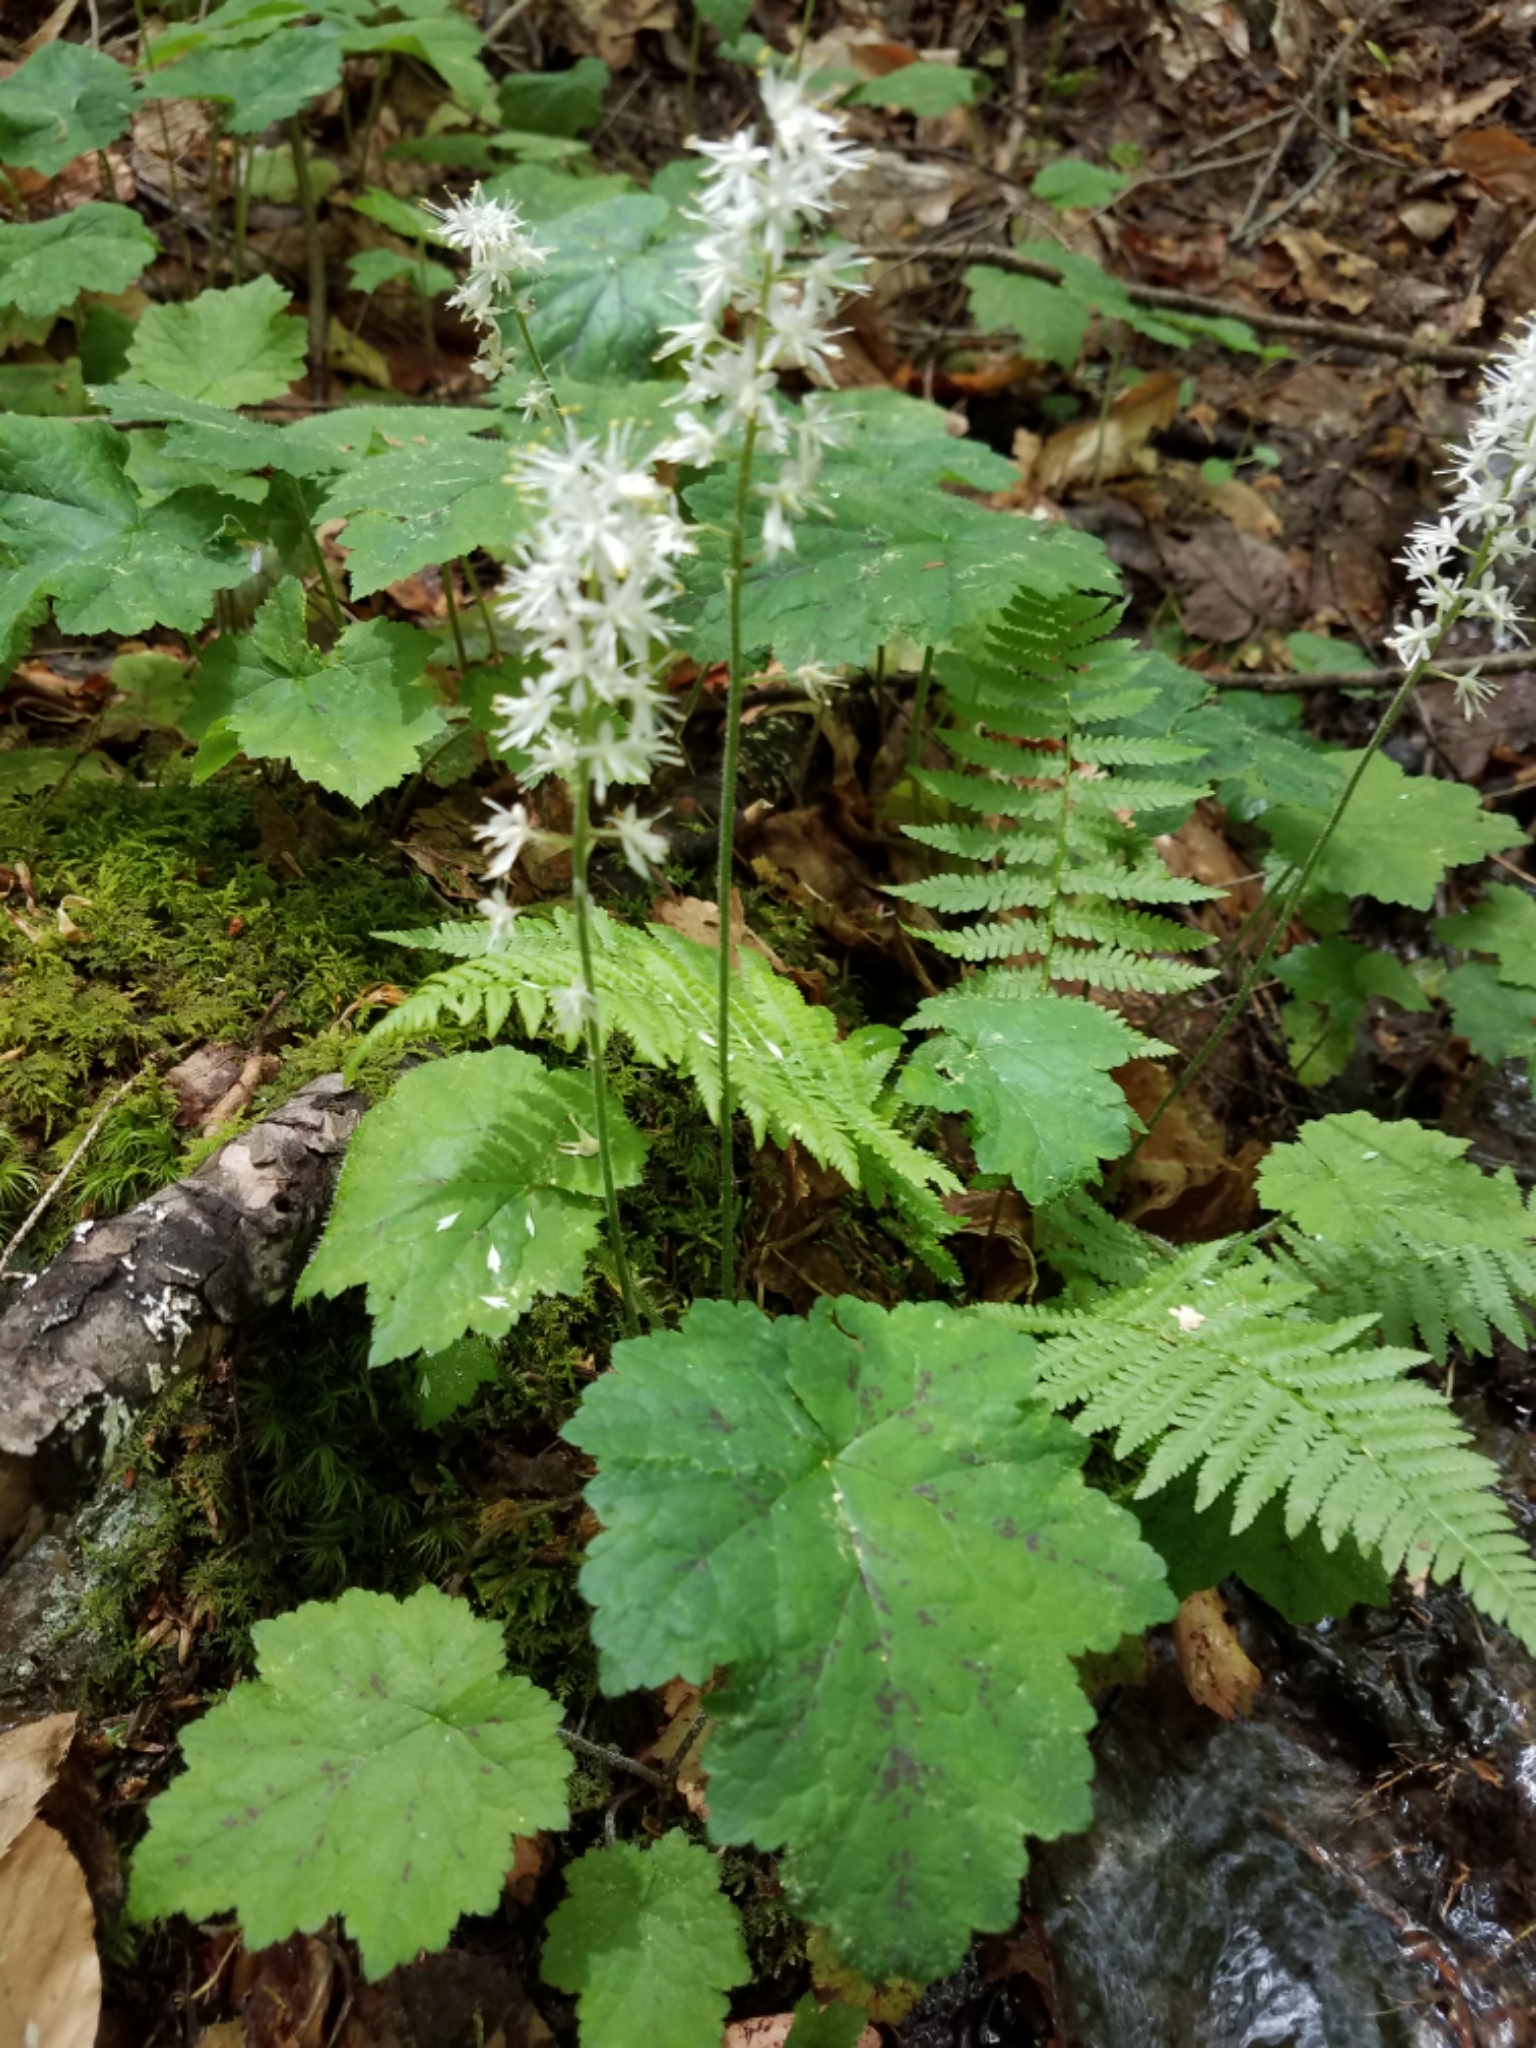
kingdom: Plantae
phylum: Tracheophyta
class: Magnoliopsida
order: Saxifragales
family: Saxifragaceae
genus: Tiarella
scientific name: Tiarella stolonifera
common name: Stoloniferous foamflower
